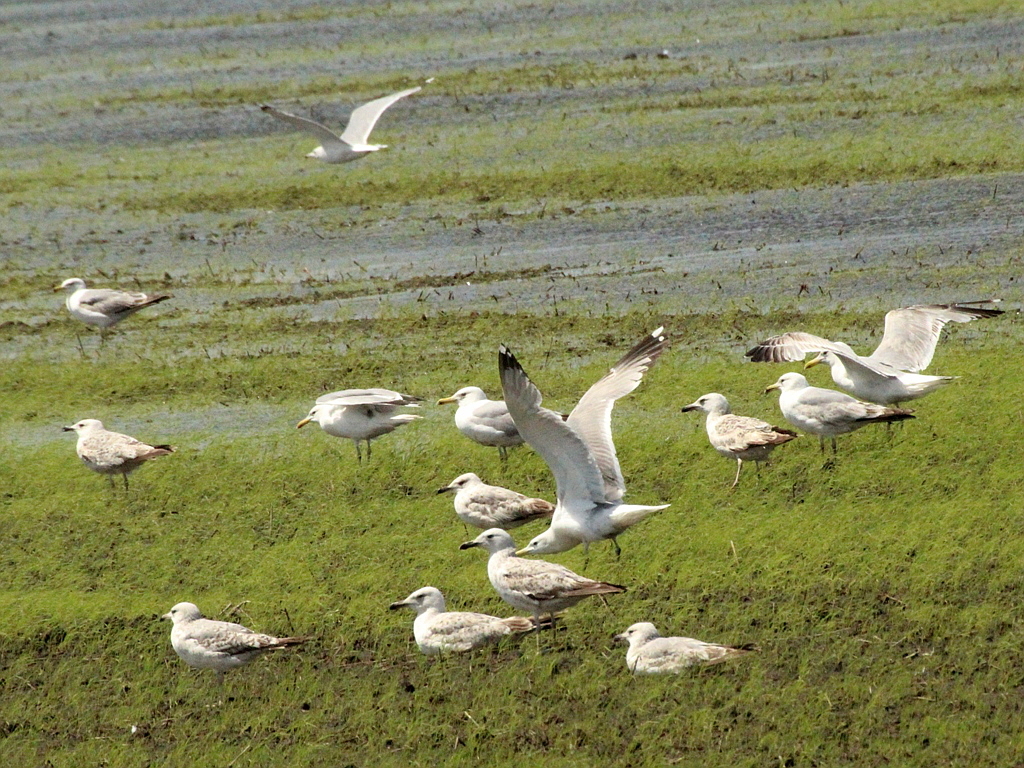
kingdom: Animalia
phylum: Chordata
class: Aves
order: Charadriiformes
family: Laridae
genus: Larus
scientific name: Larus cachinnans
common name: Caspian gull
